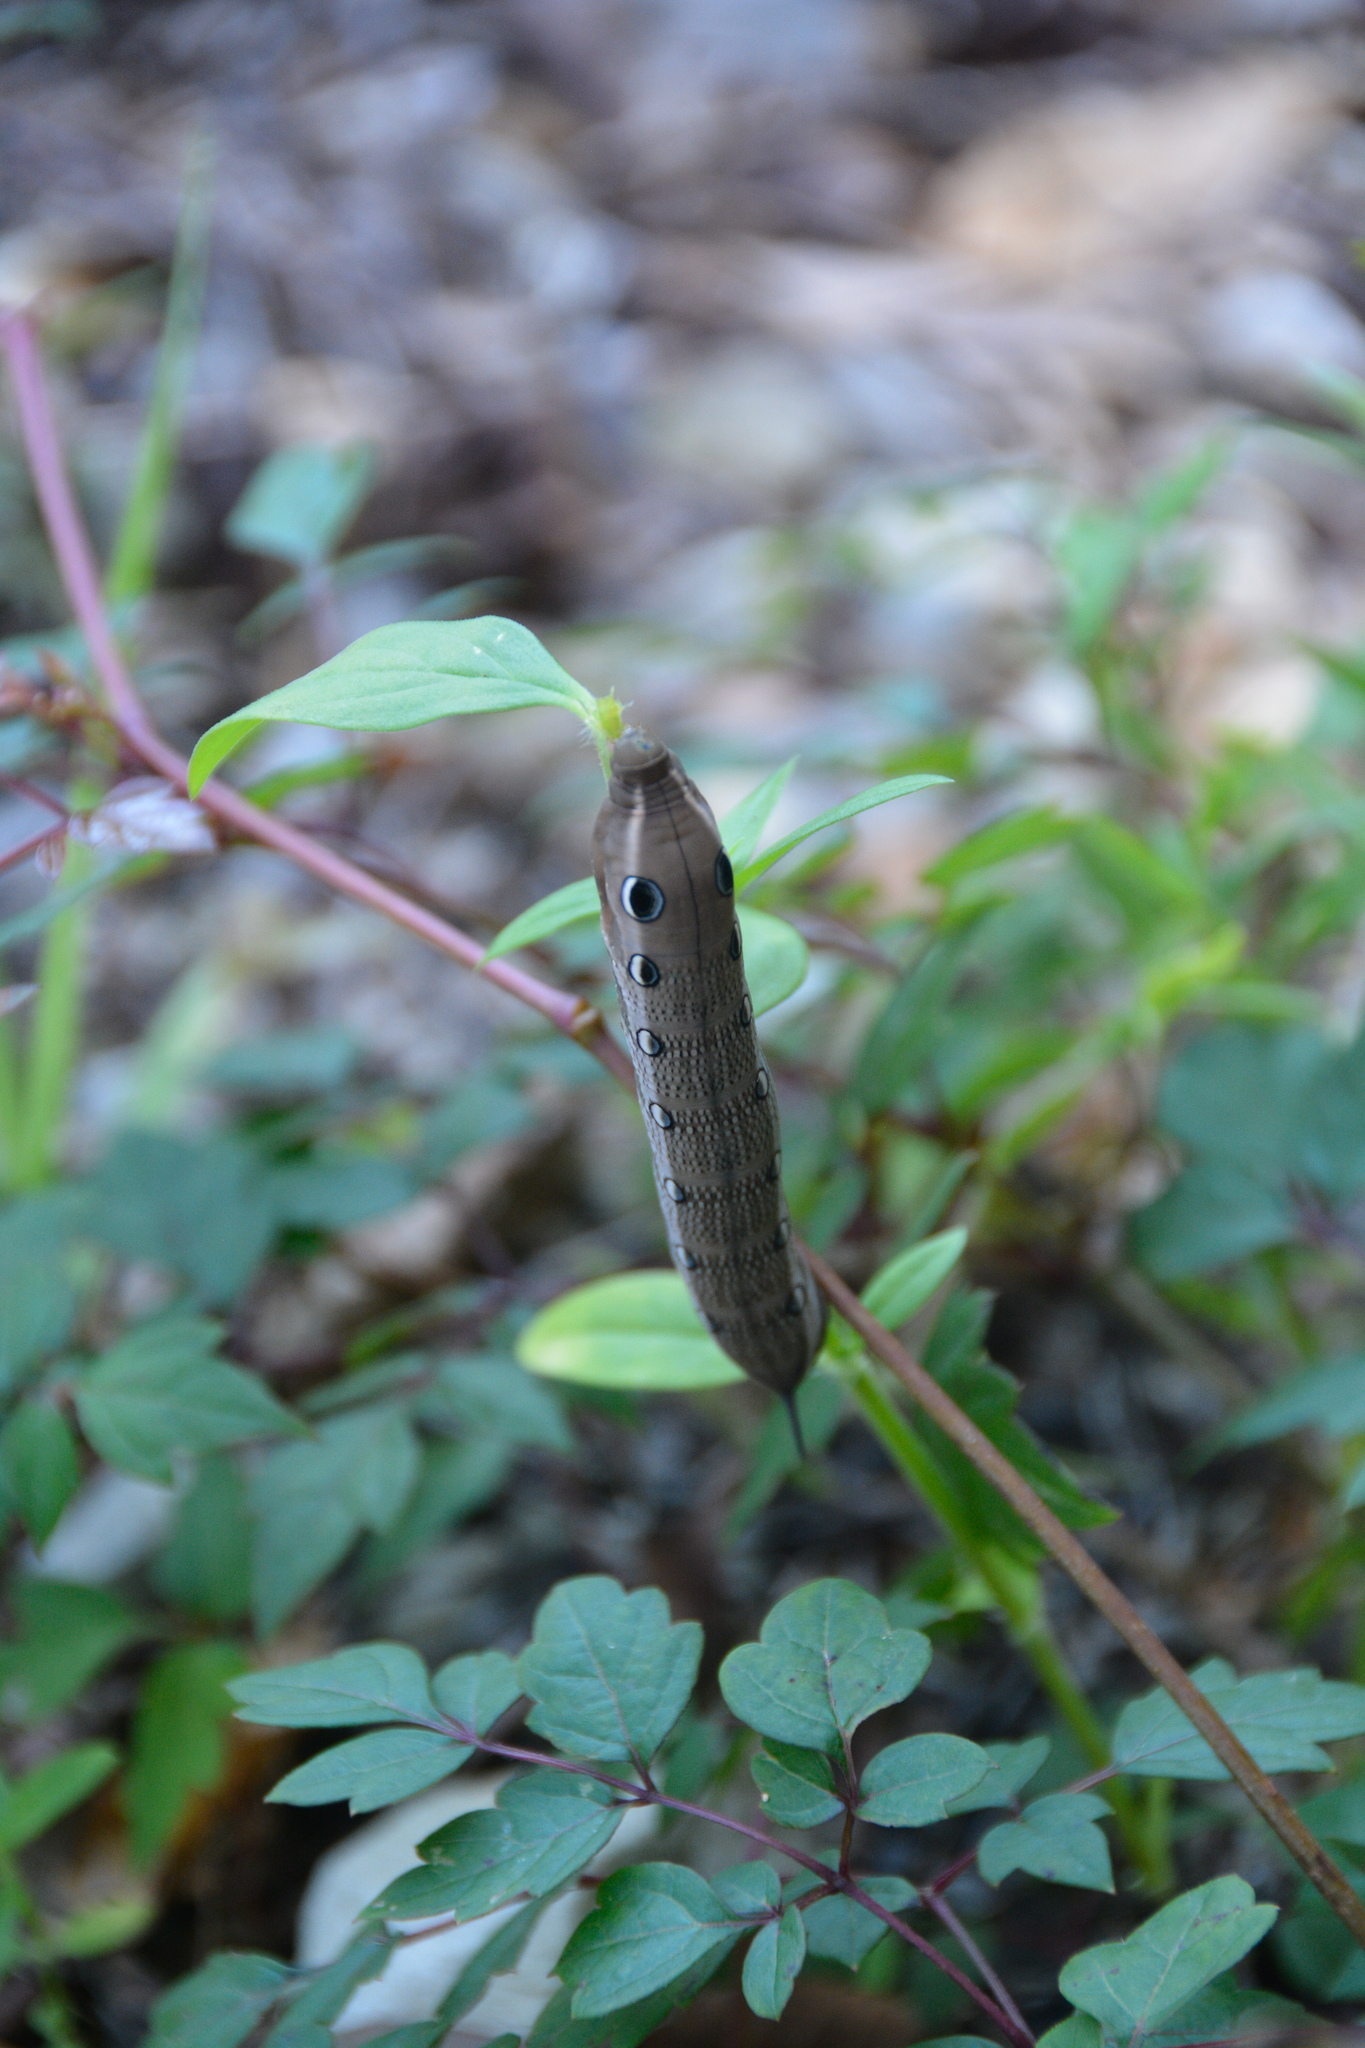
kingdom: Animalia
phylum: Arthropoda
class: Insecta
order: Lepidoptera
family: Sphingidae
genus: Xylophanes
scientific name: Xylophanes tersa
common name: Tersa sphinx
